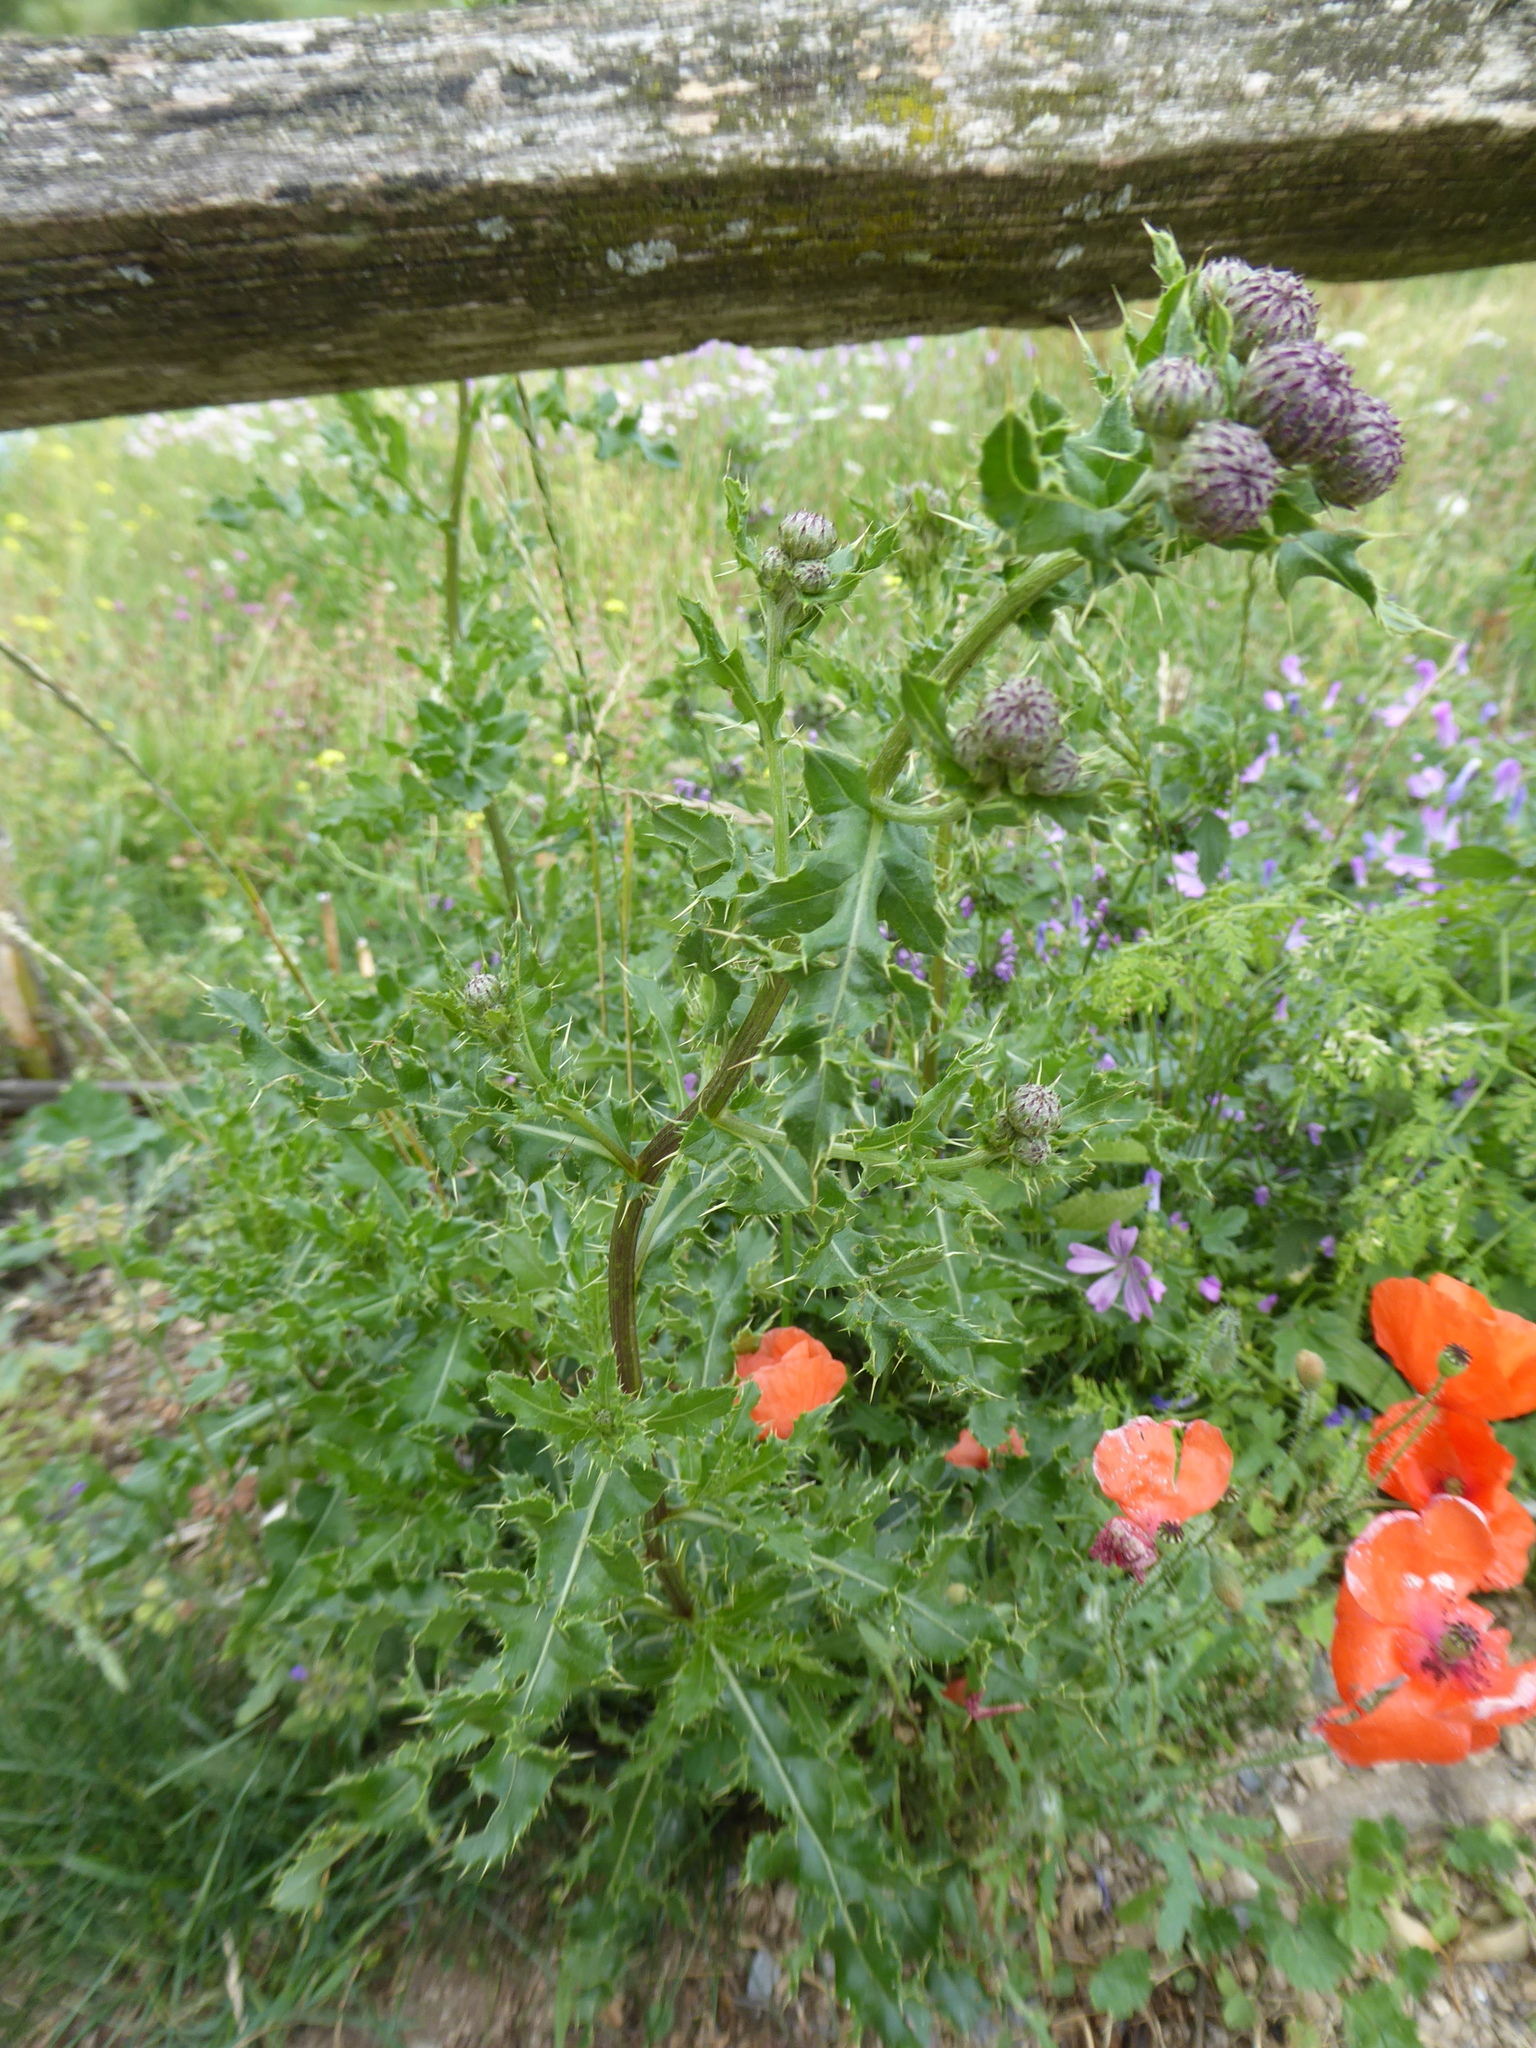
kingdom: Plantae
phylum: Tracheophyta
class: Magnoliopsida
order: Asterales
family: Asteraceae
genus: Cirsium
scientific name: Cirsium arvense
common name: Creeping thistle
